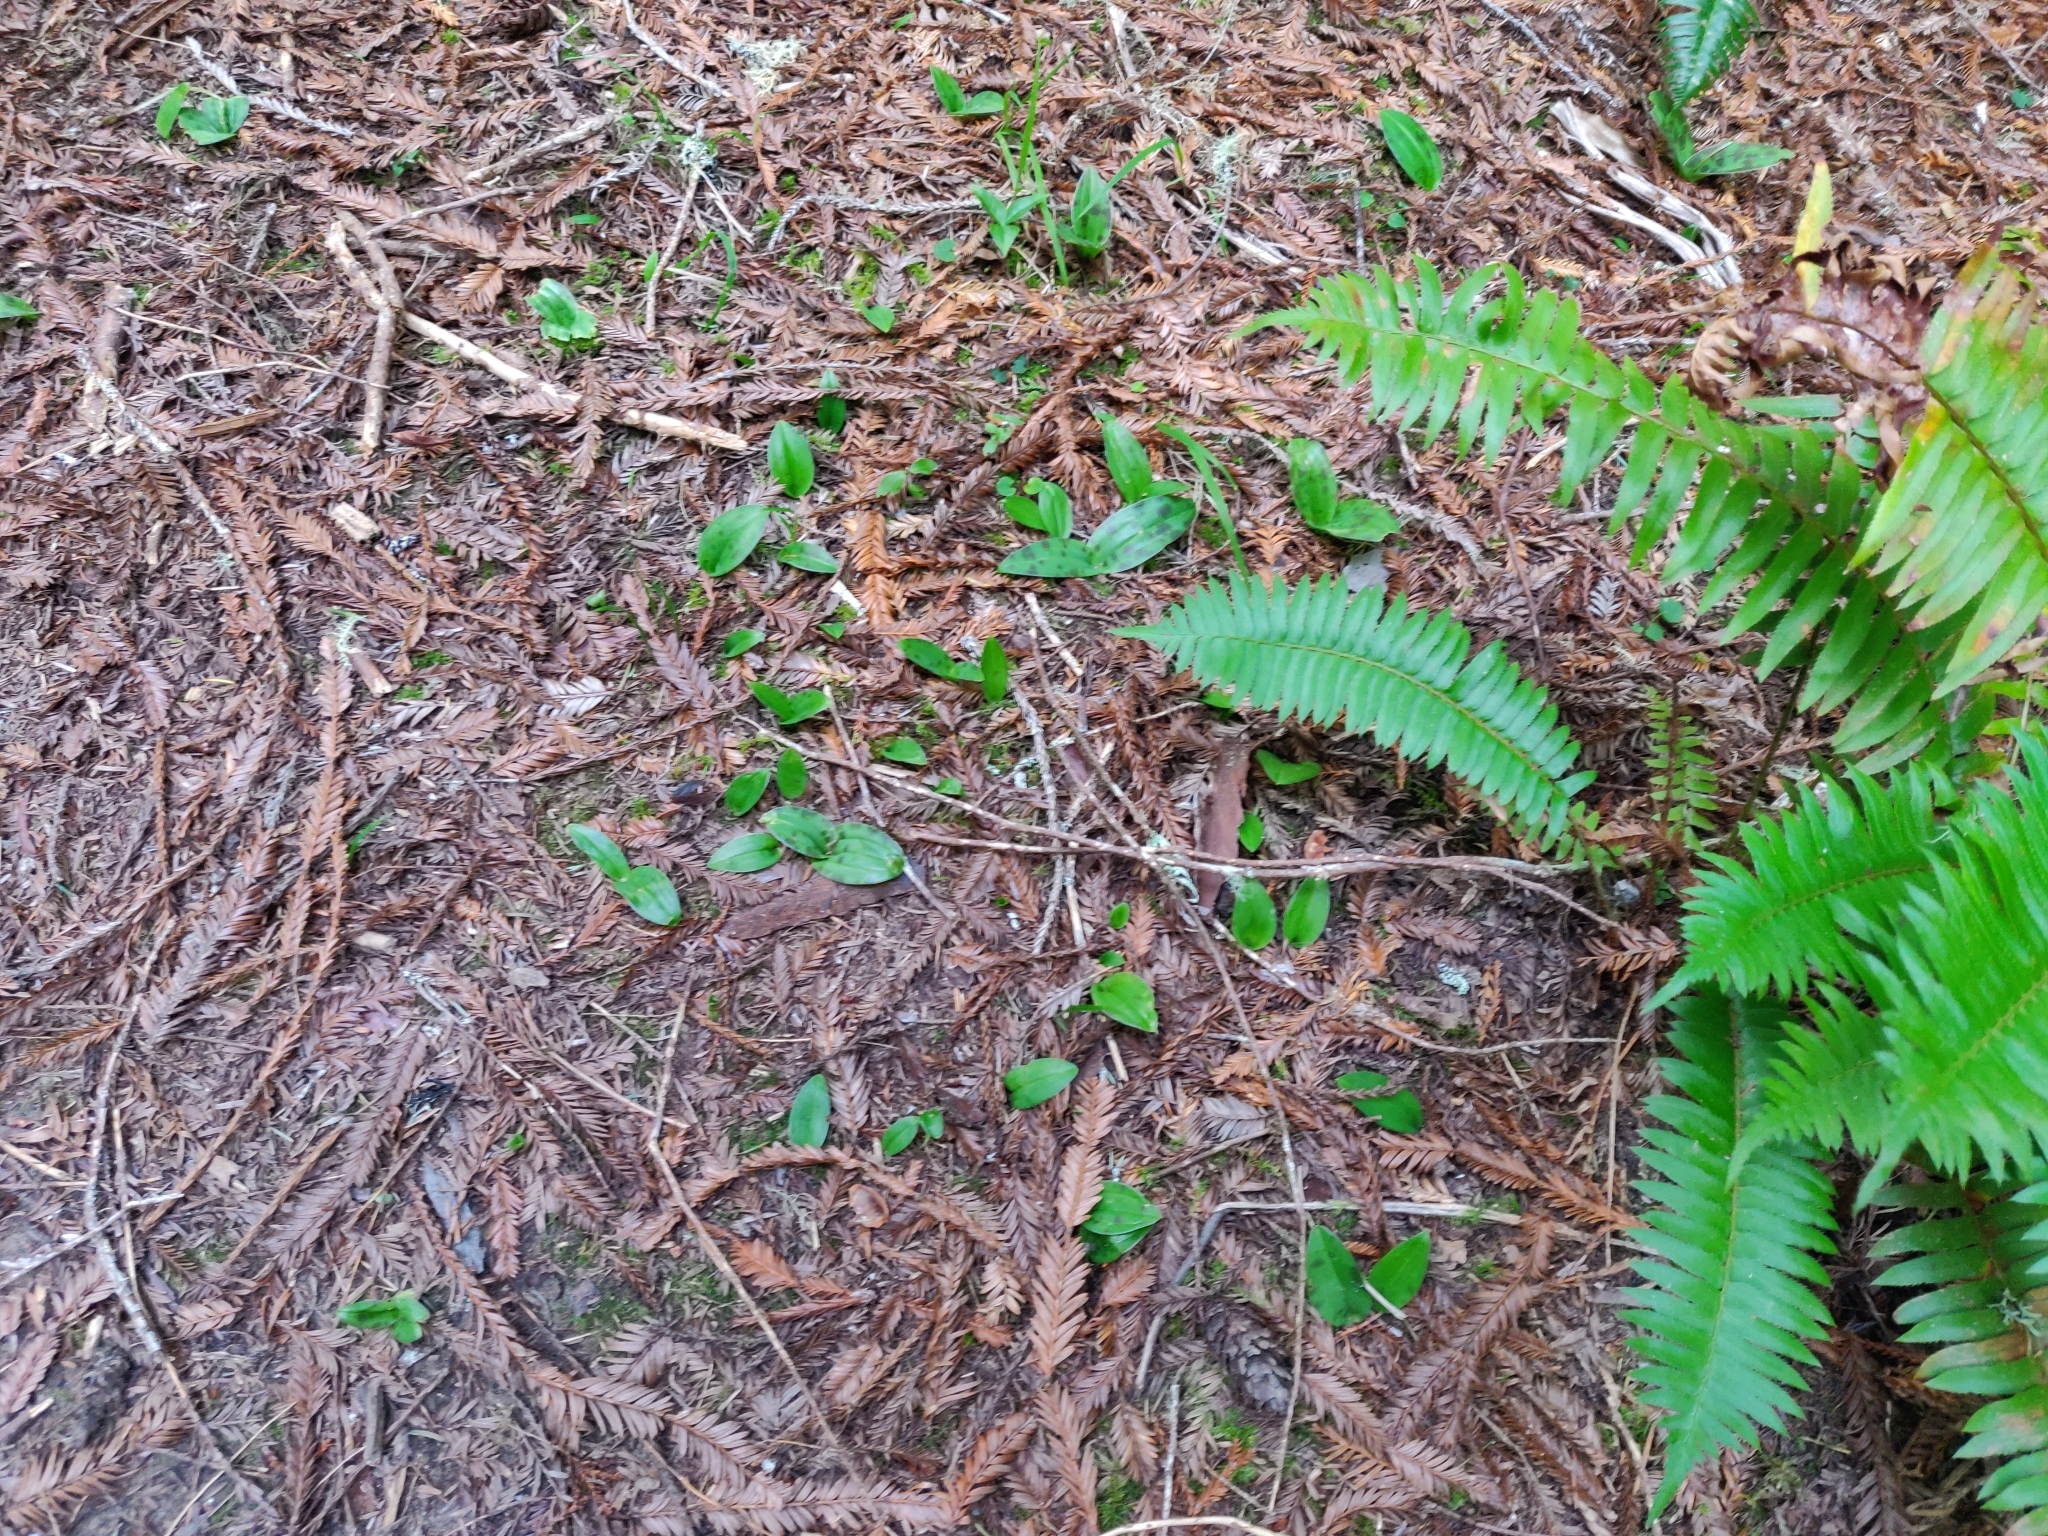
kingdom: Plantae
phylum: Tracheophyta
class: Liliopsida
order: Liliales
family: Liliaceae
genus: Scoliopus
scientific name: Scoliopus bigelovii
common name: Foetid adder's-tongue
